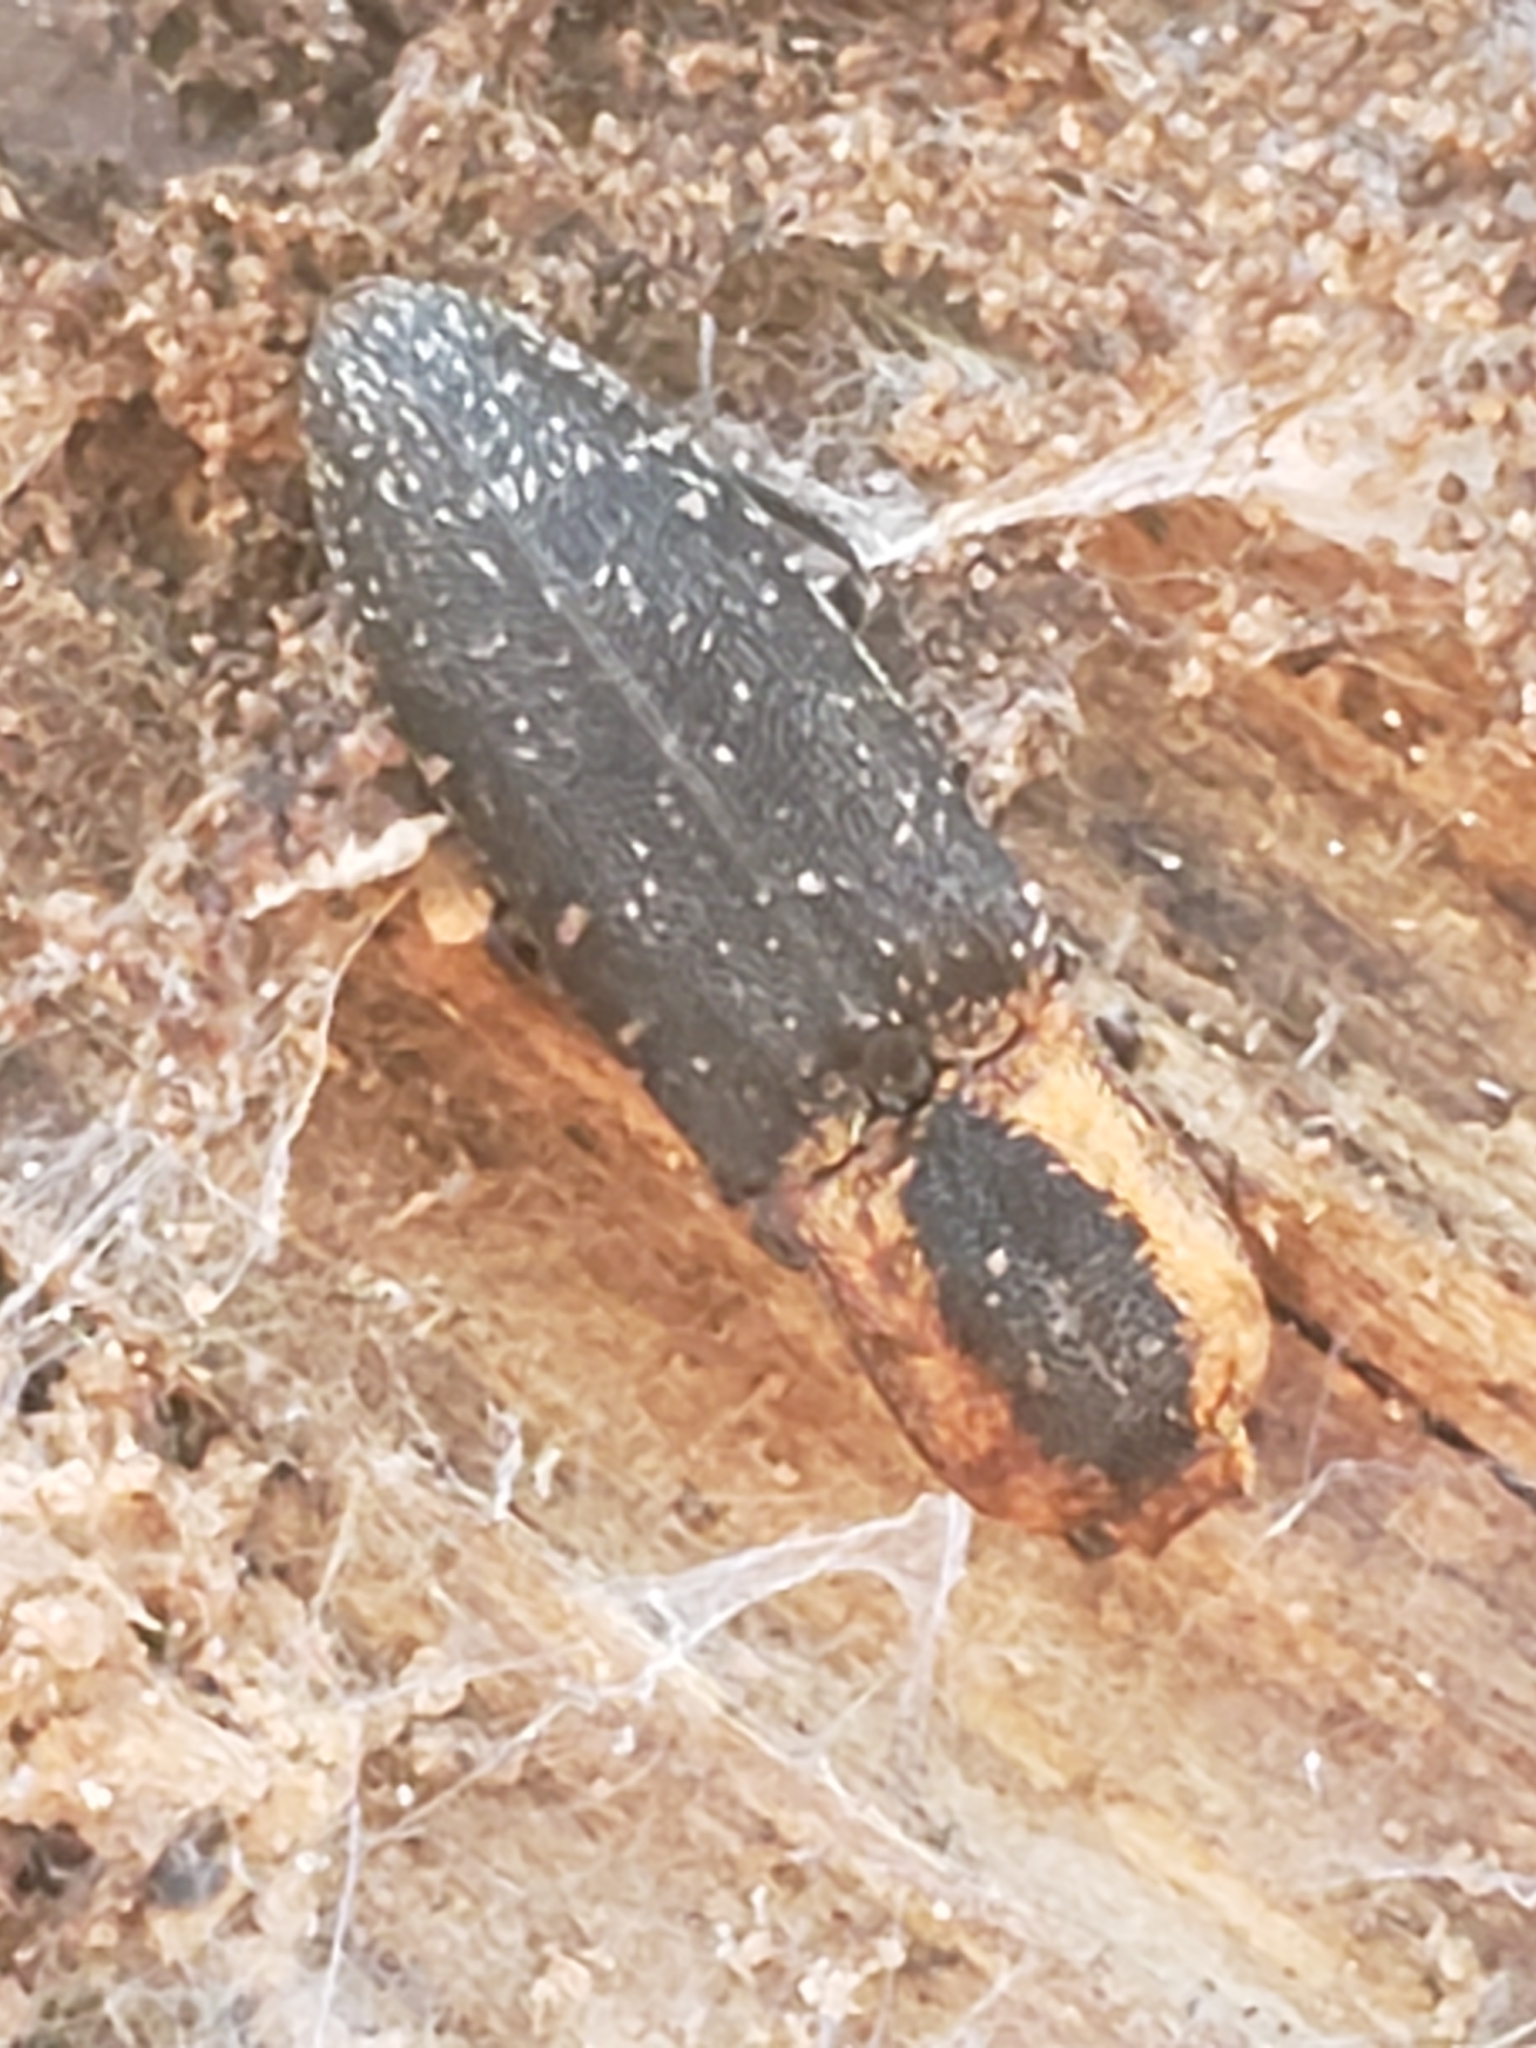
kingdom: Animalia
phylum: Arthropoda
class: Insecta
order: Coleoptera
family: Elateridae
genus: Lacon
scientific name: Lacon discoideus
